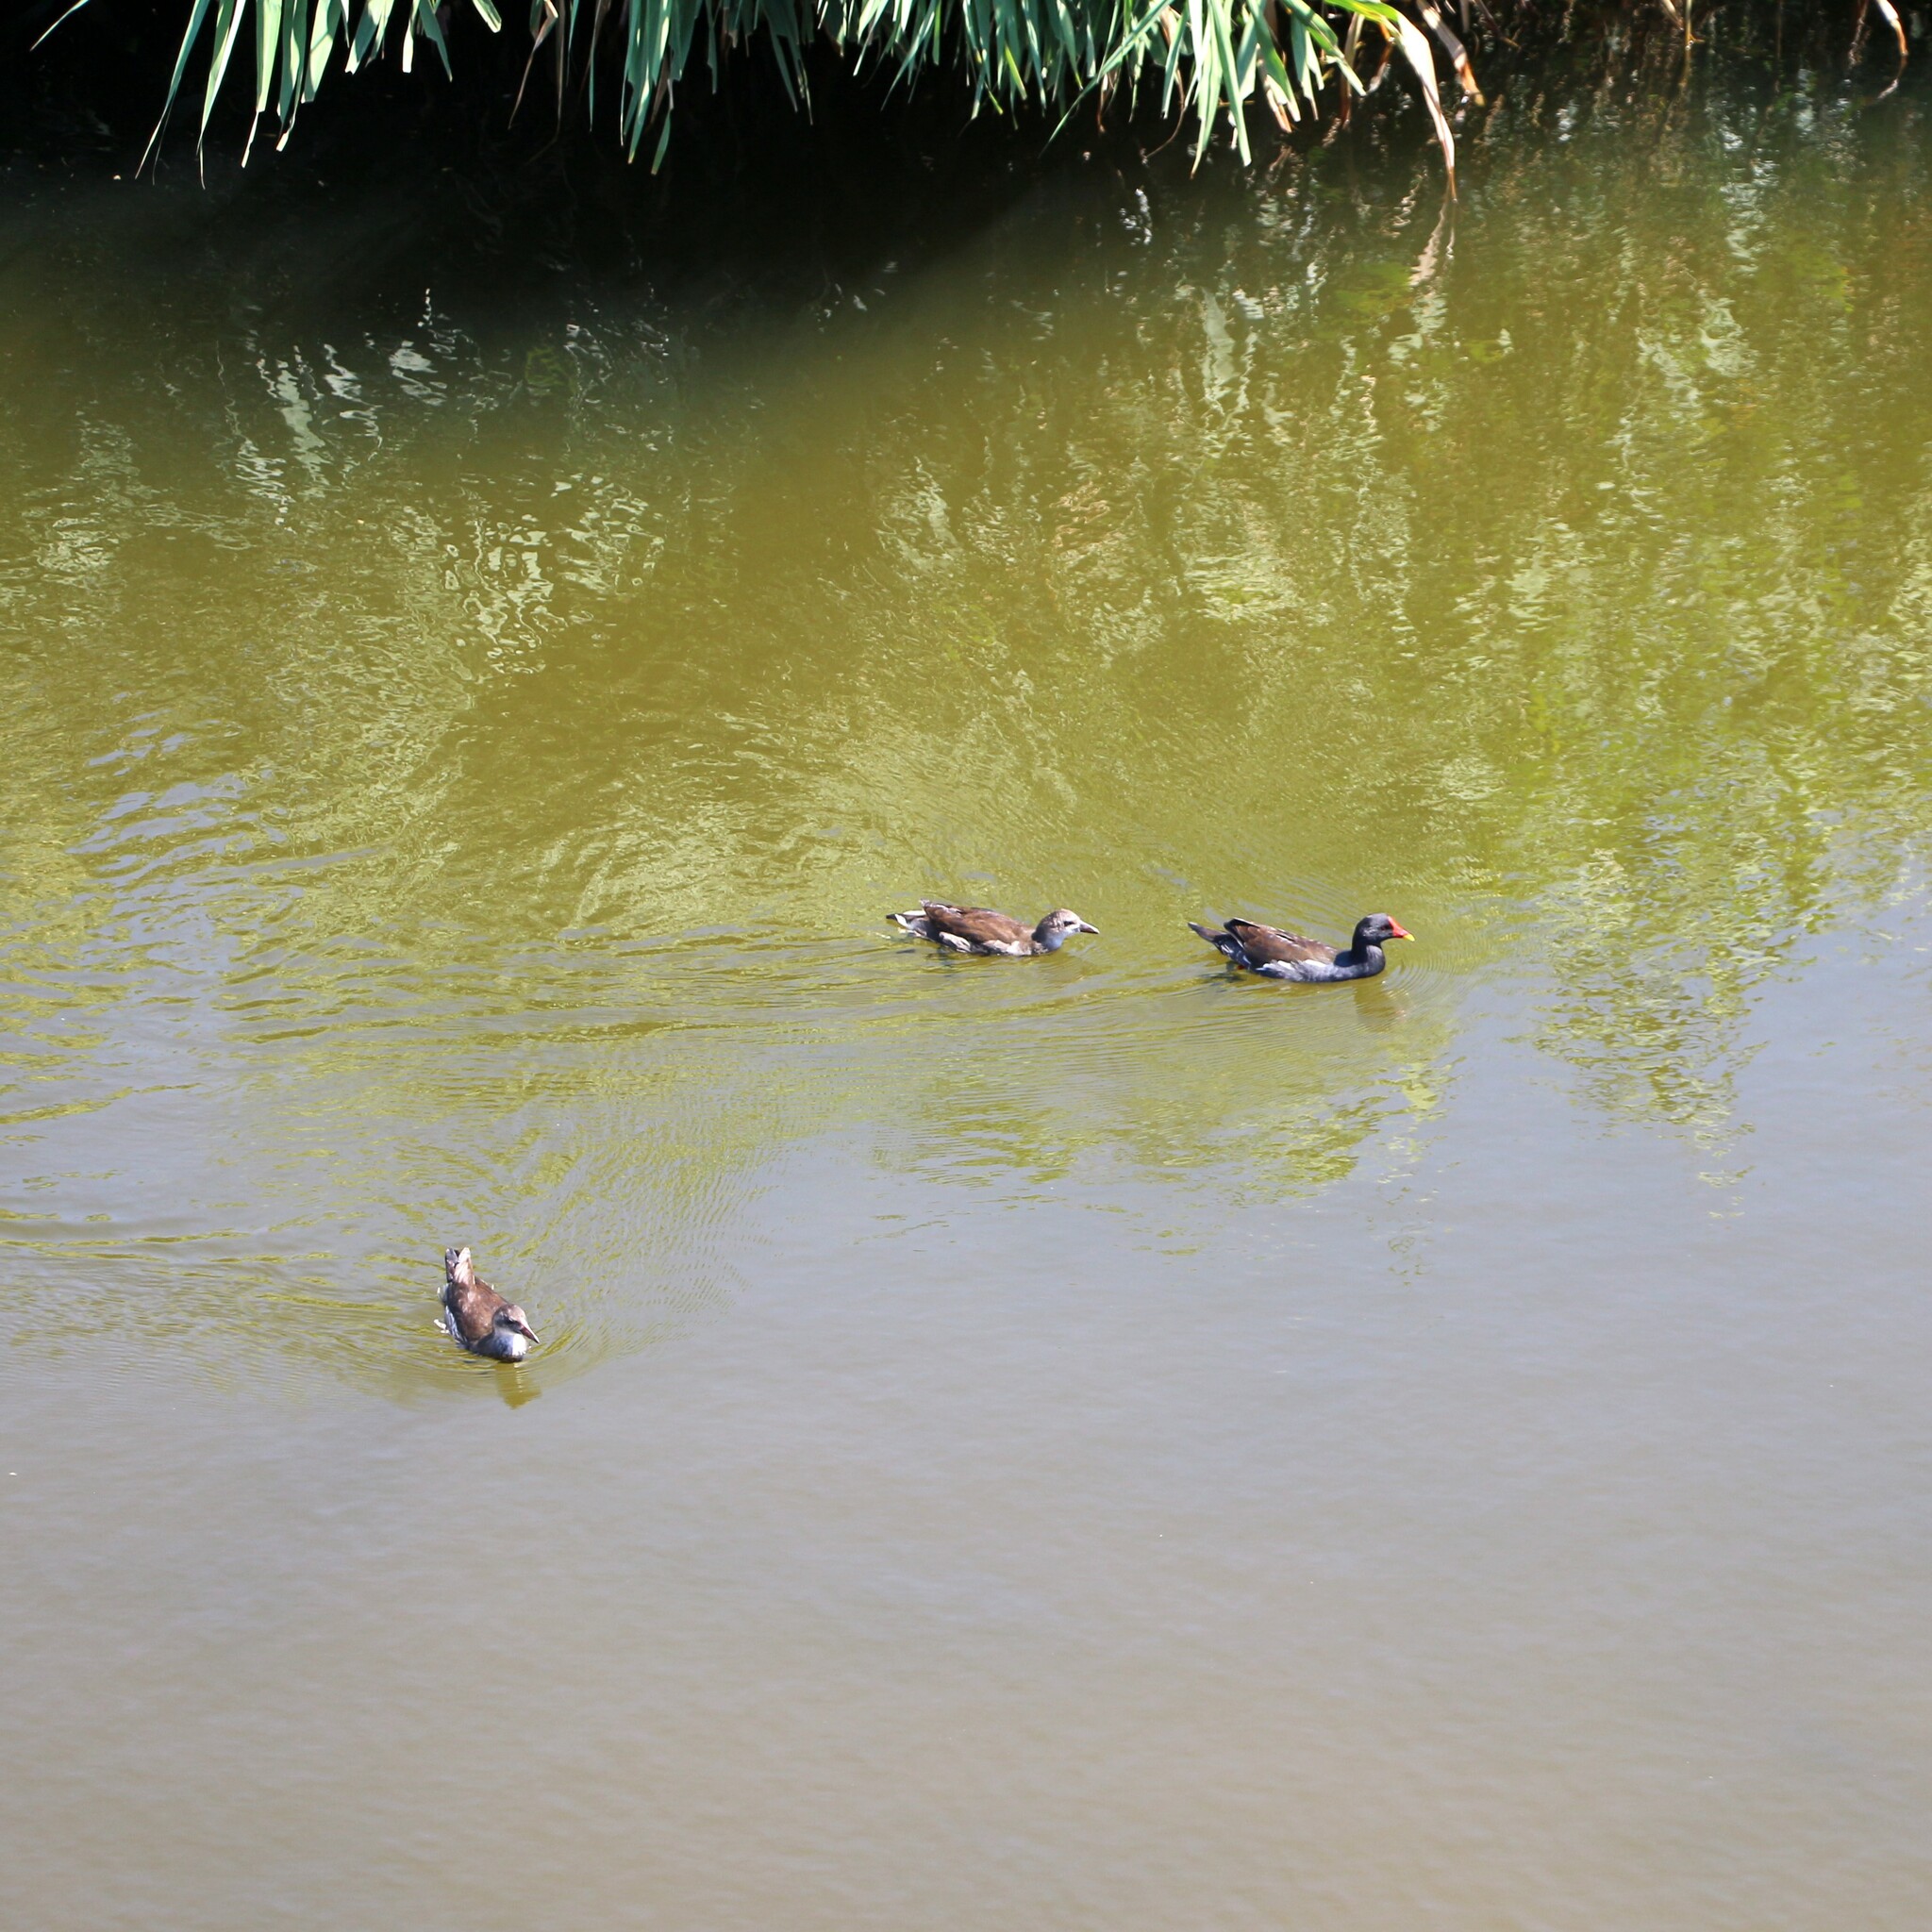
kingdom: Animalia
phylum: Chordata
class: Aves
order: Gruiformes
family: Rallidae
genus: Gallinula
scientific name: Gallinula chloropus
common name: Common moorhen
